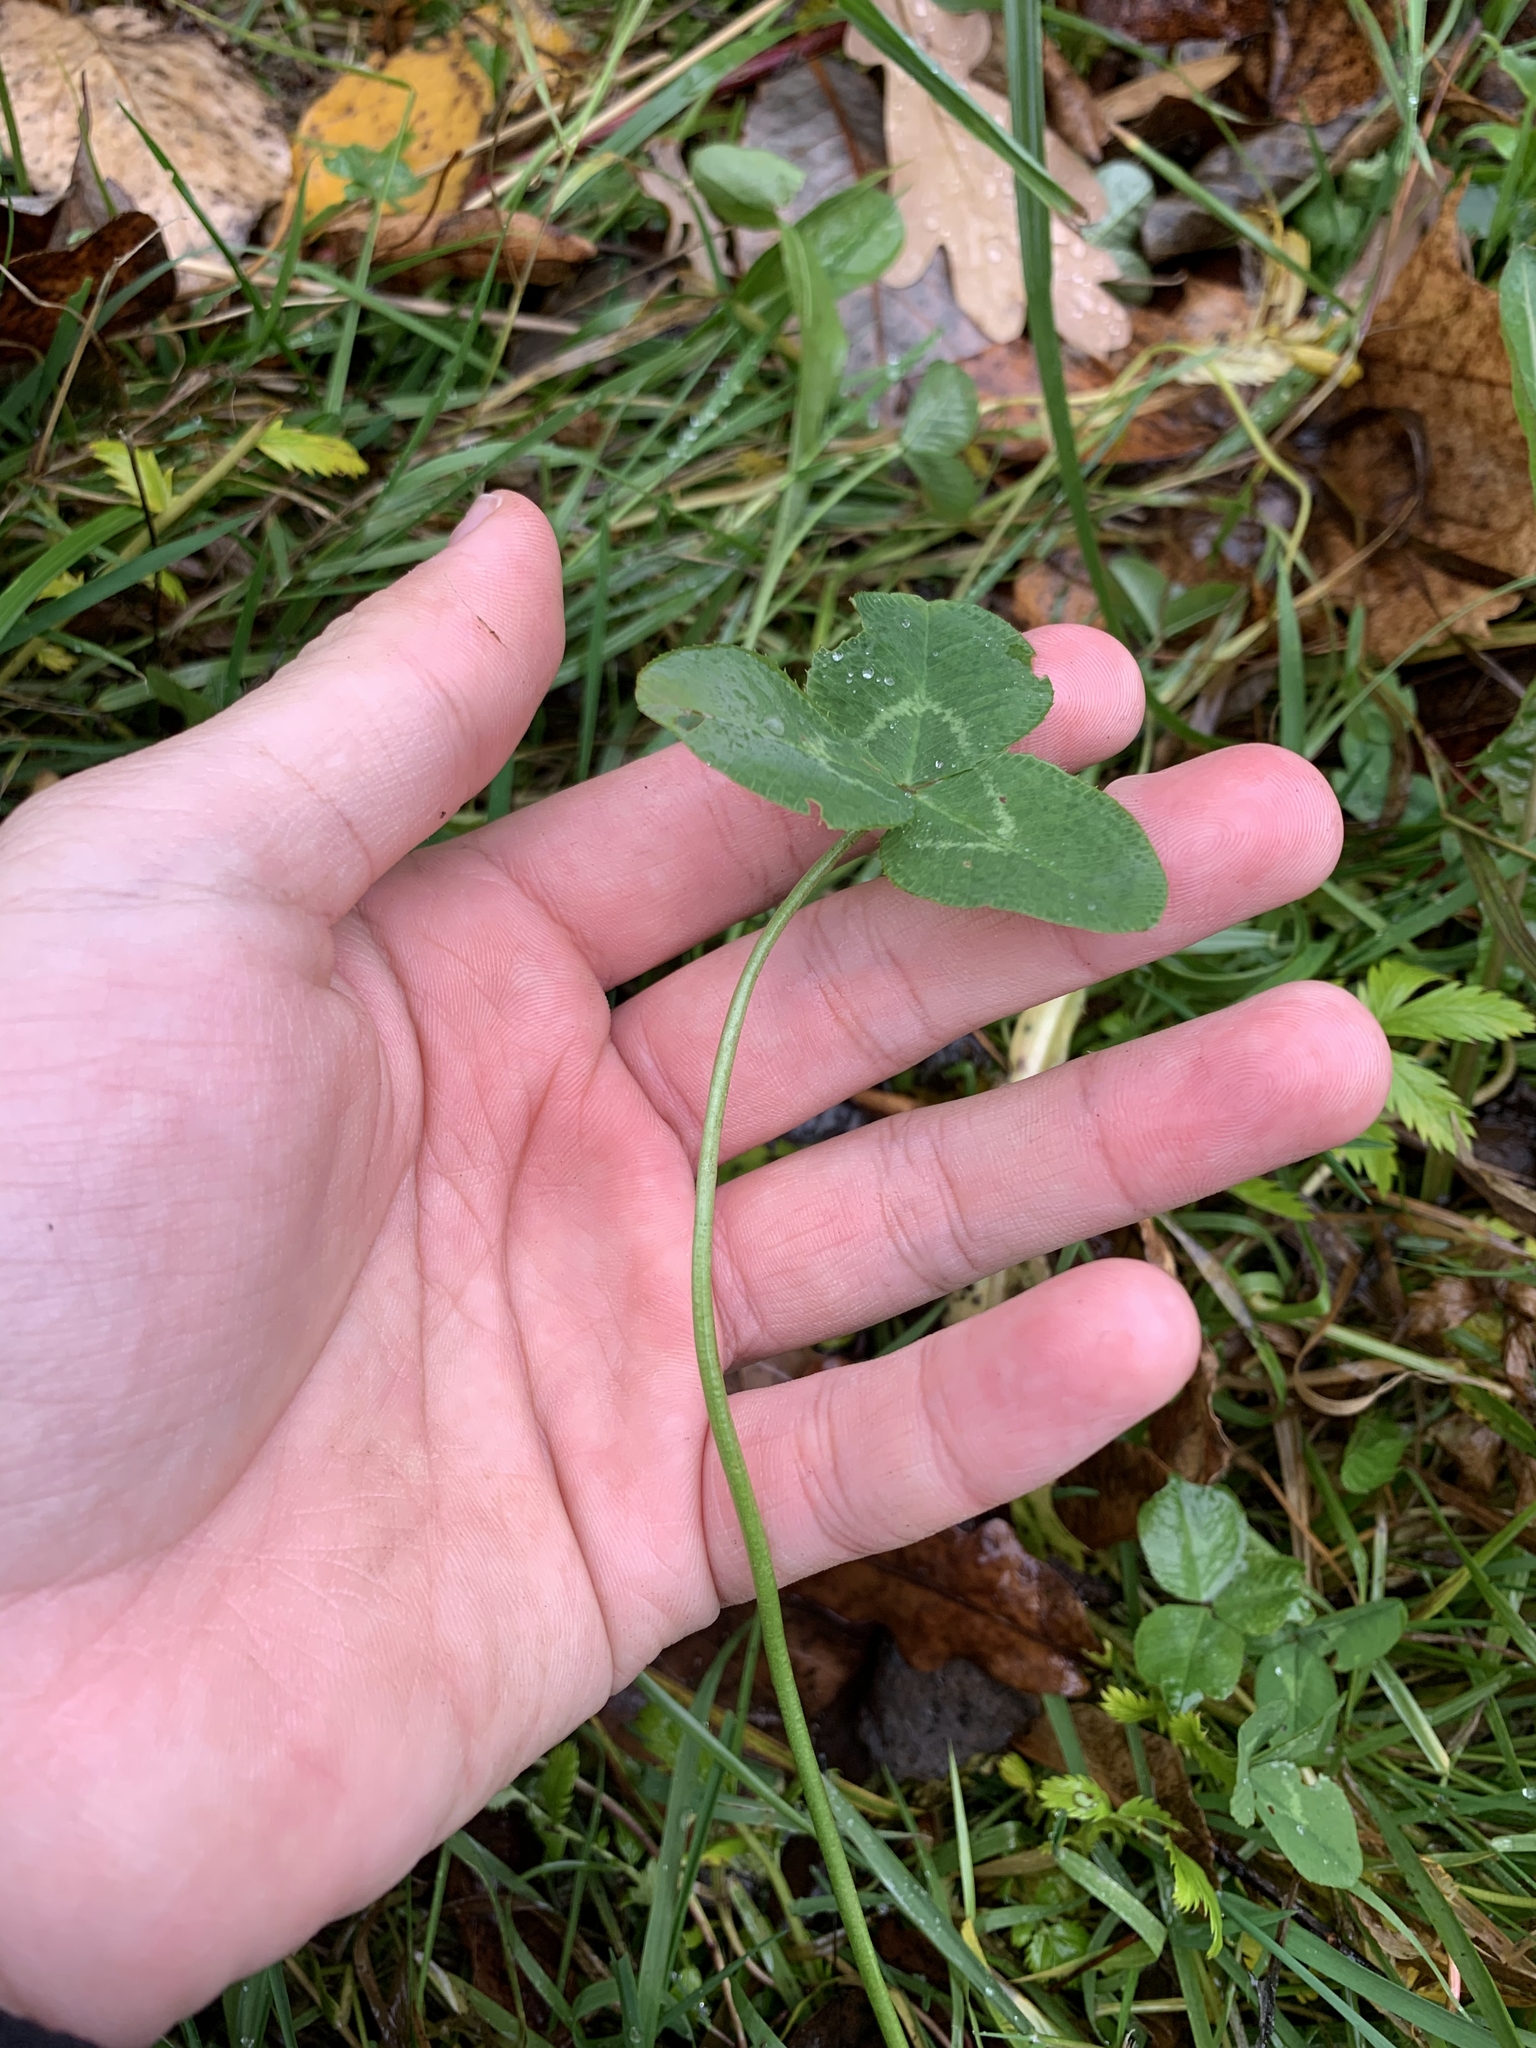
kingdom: Plantae
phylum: Tracheophyta
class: Magnoliopsida
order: Fabales
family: Fabaceae
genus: Trifolium
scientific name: Trifolium repens
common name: White clover
